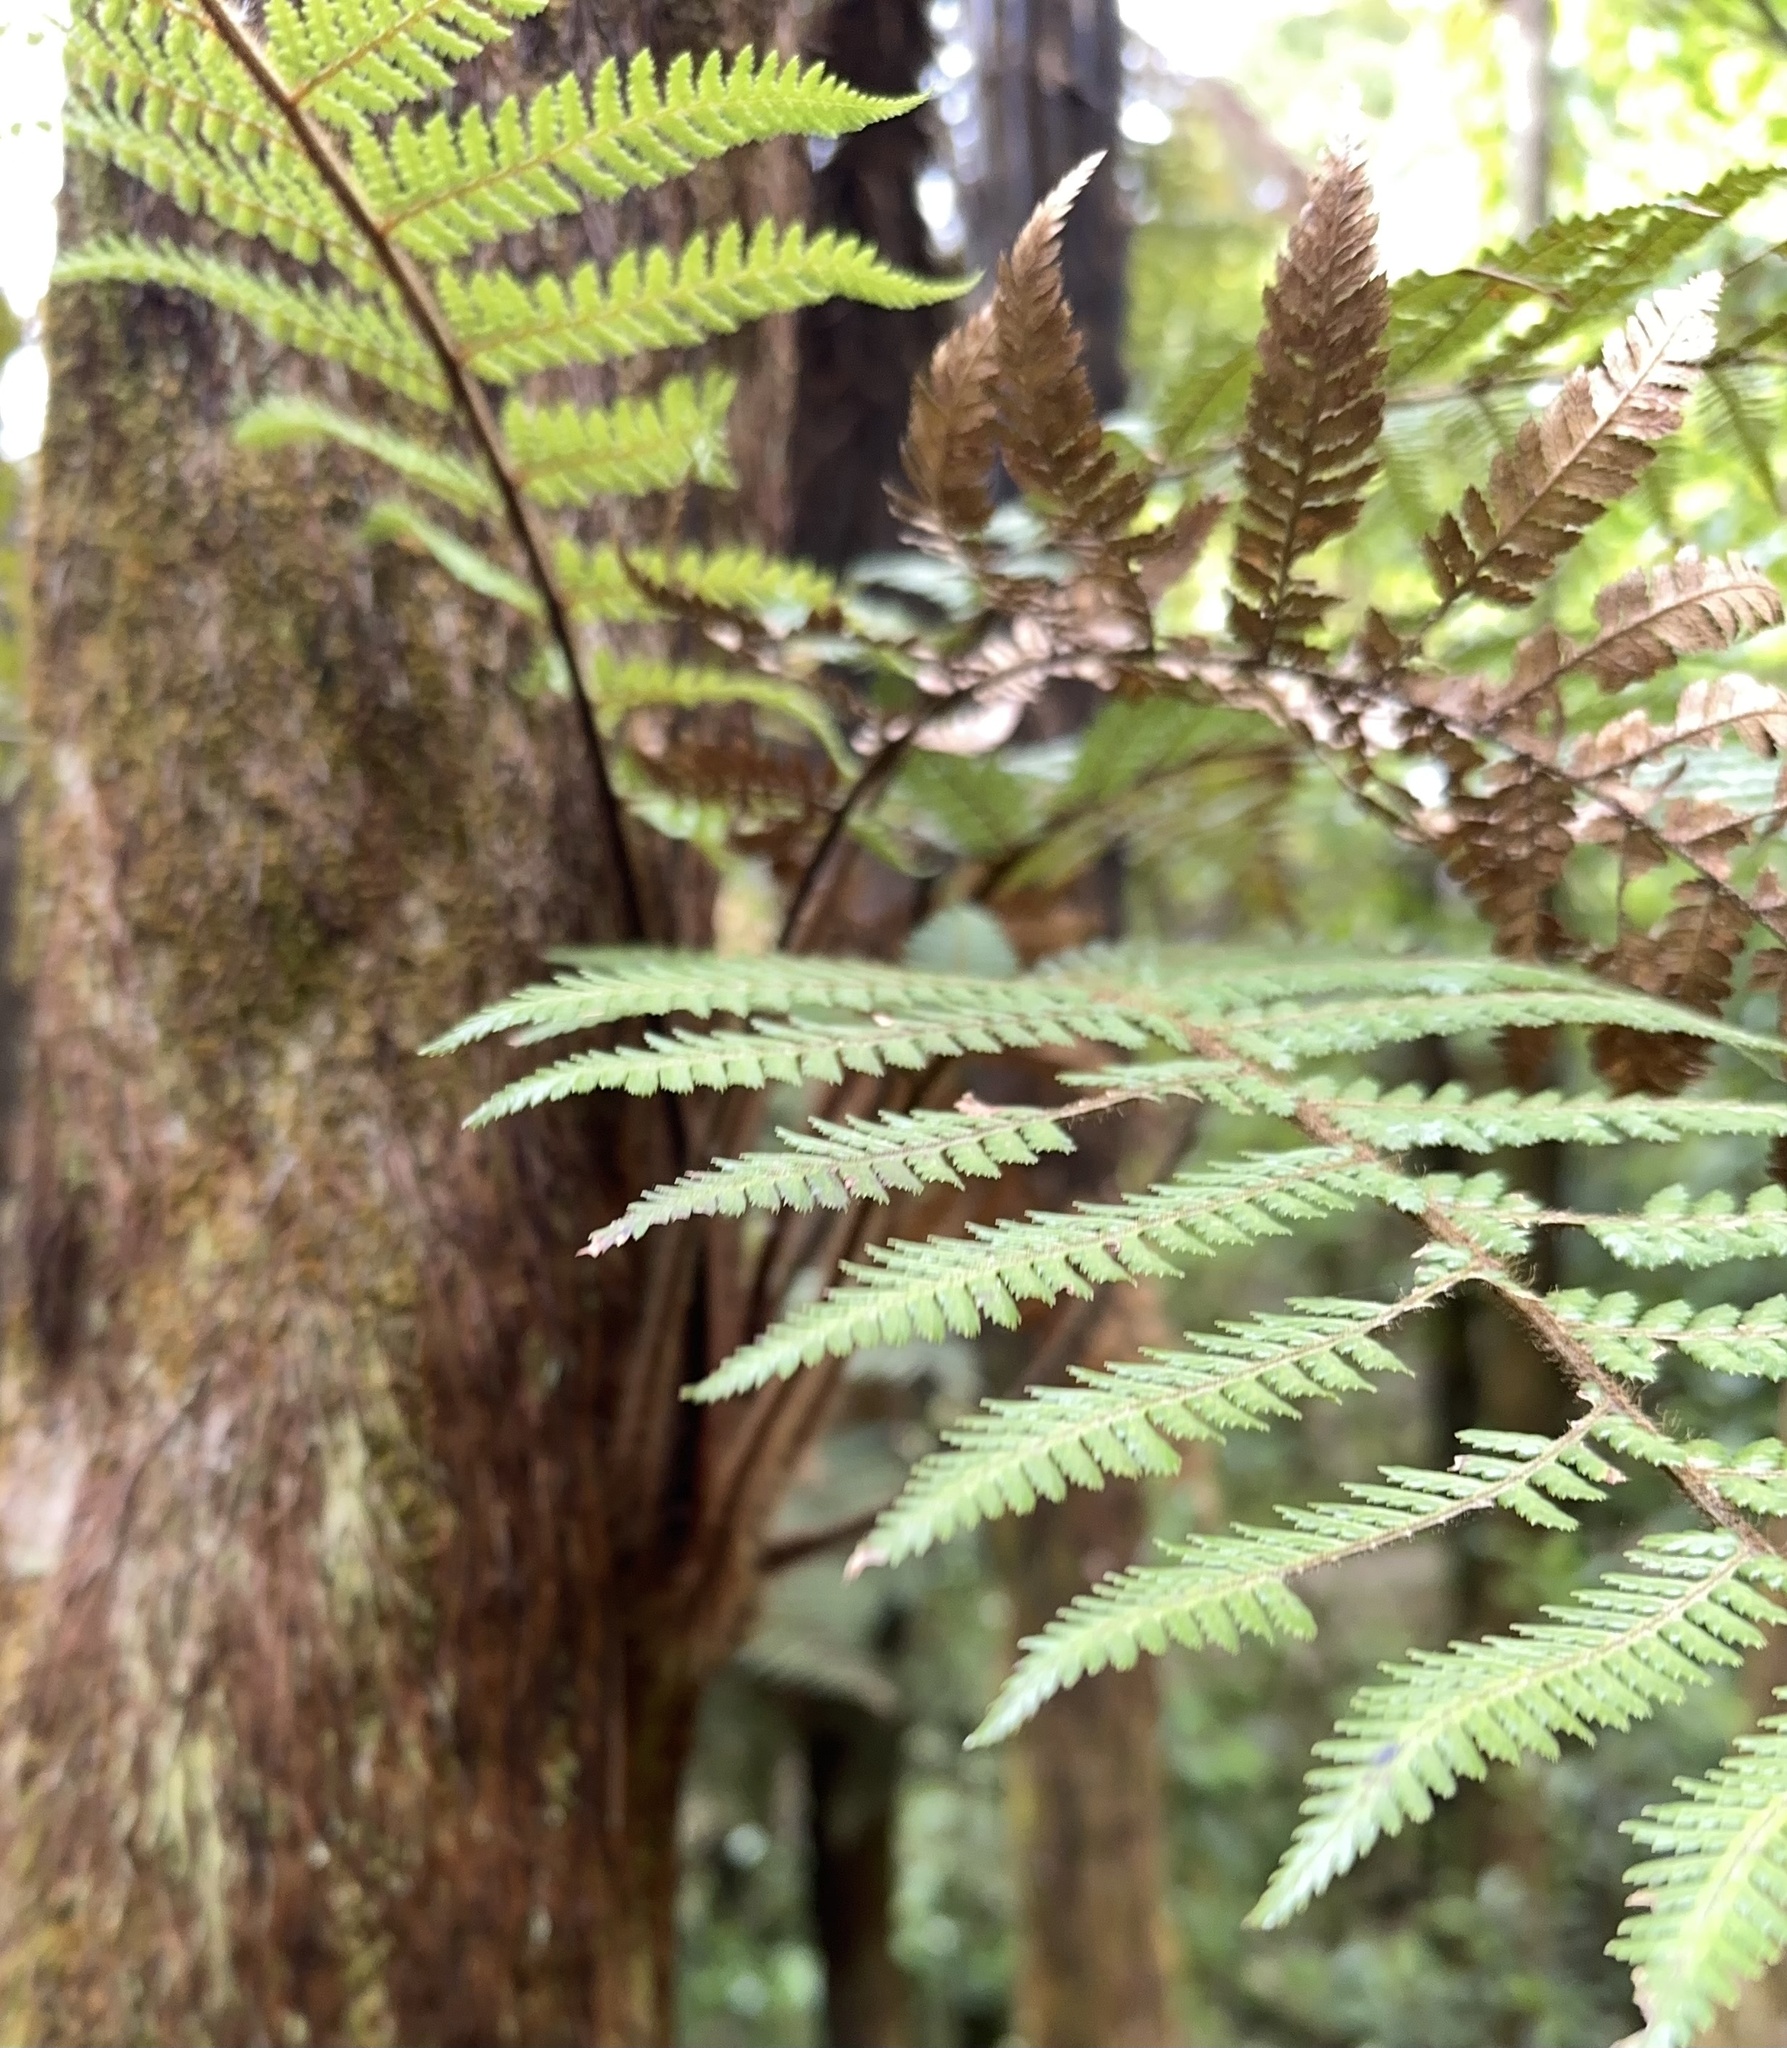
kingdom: Plantae
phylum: Tracheophyta
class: Polypodiopsida
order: Cyatheales
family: Dicksoniaceae
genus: Dicksonia
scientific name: Dicksonia squarrosa
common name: Hard treefern
